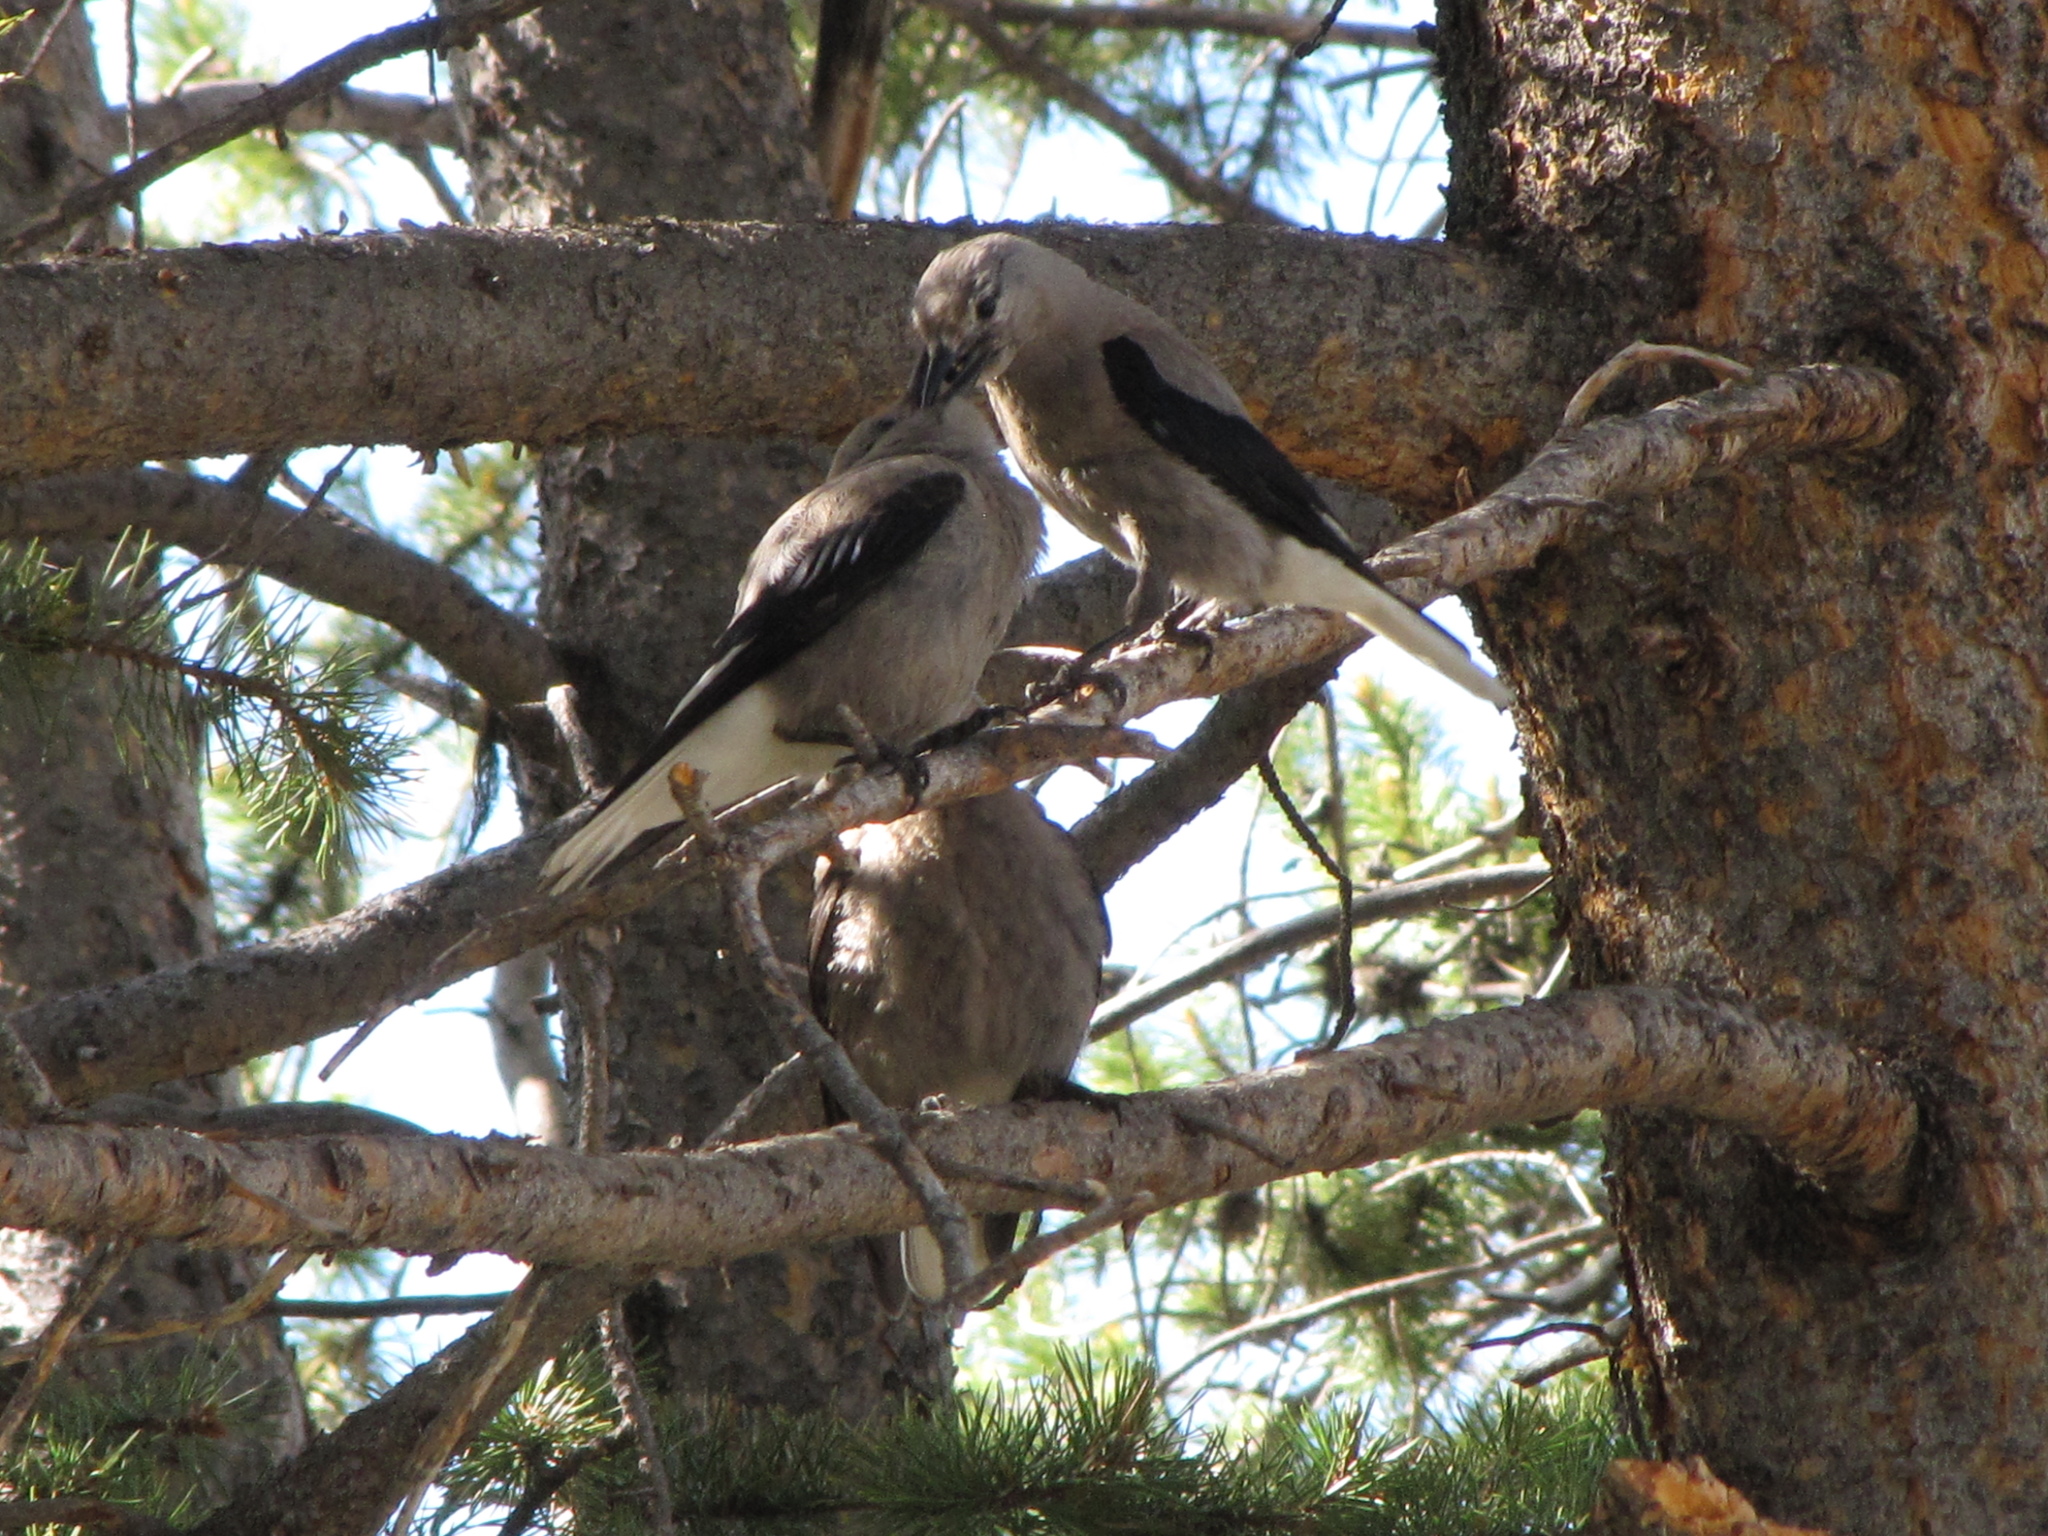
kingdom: Animalia
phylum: Chordata
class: Aves
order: Passeriformes
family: Corvidae
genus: Nucifraga
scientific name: Nucifraga columbiana
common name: Clark's nutcracker
